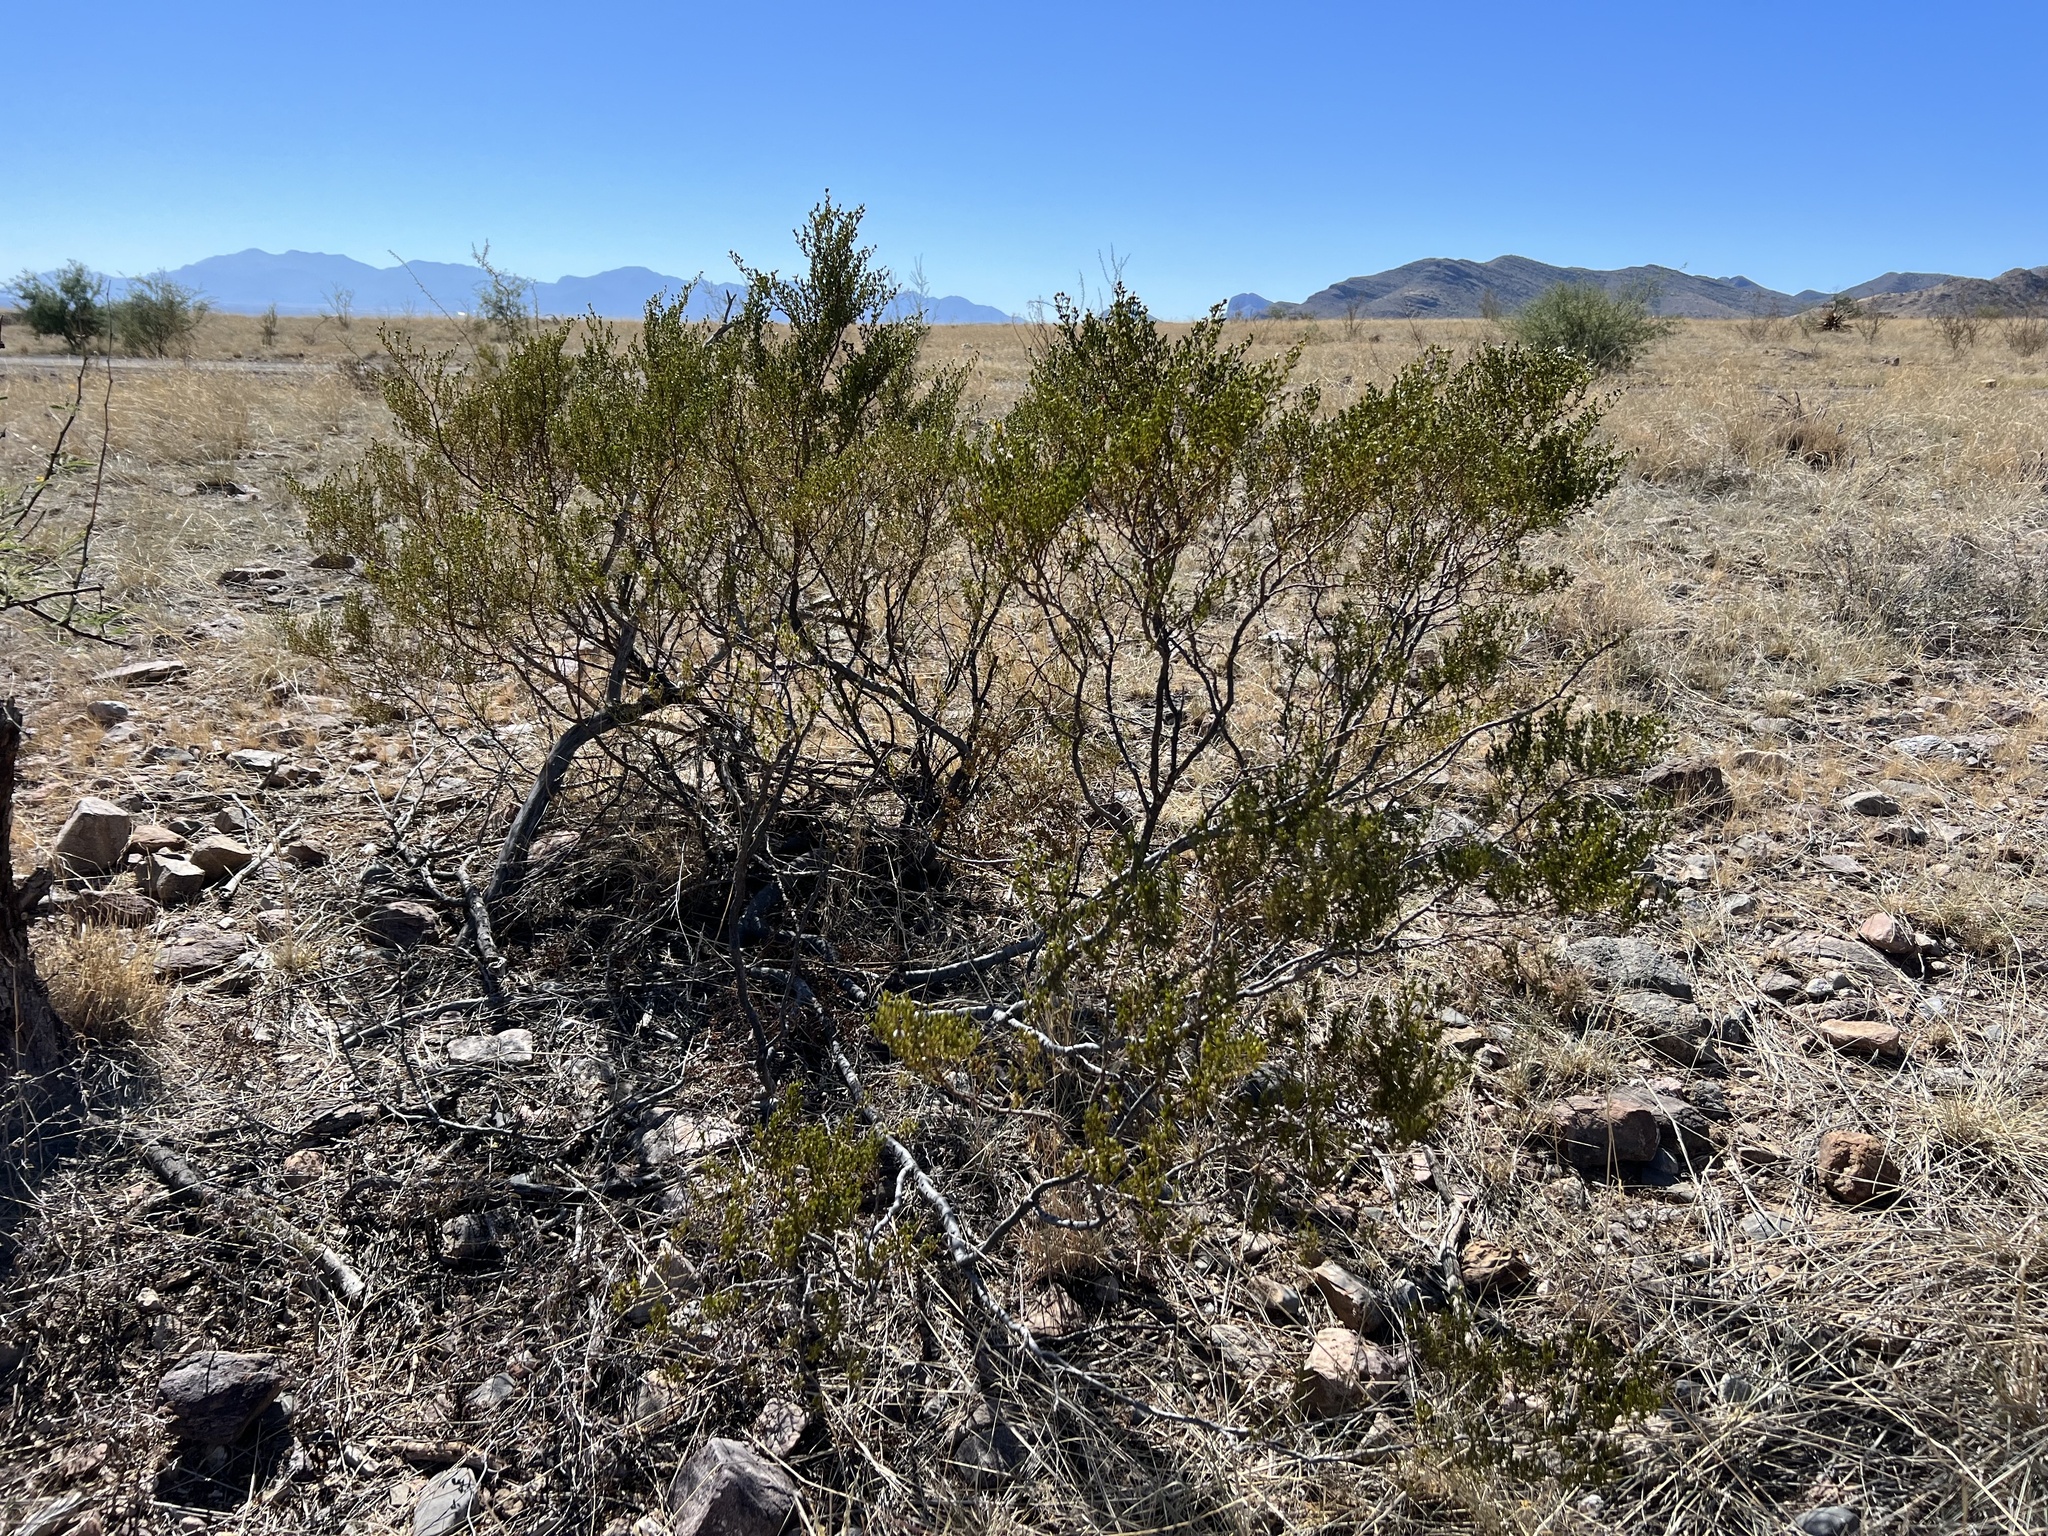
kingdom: Plantae
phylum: Tracheophyta
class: Magnoliopsida
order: Zygophyllales
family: Zygophyllaceae
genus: Larrea
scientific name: Larrea tridentata
